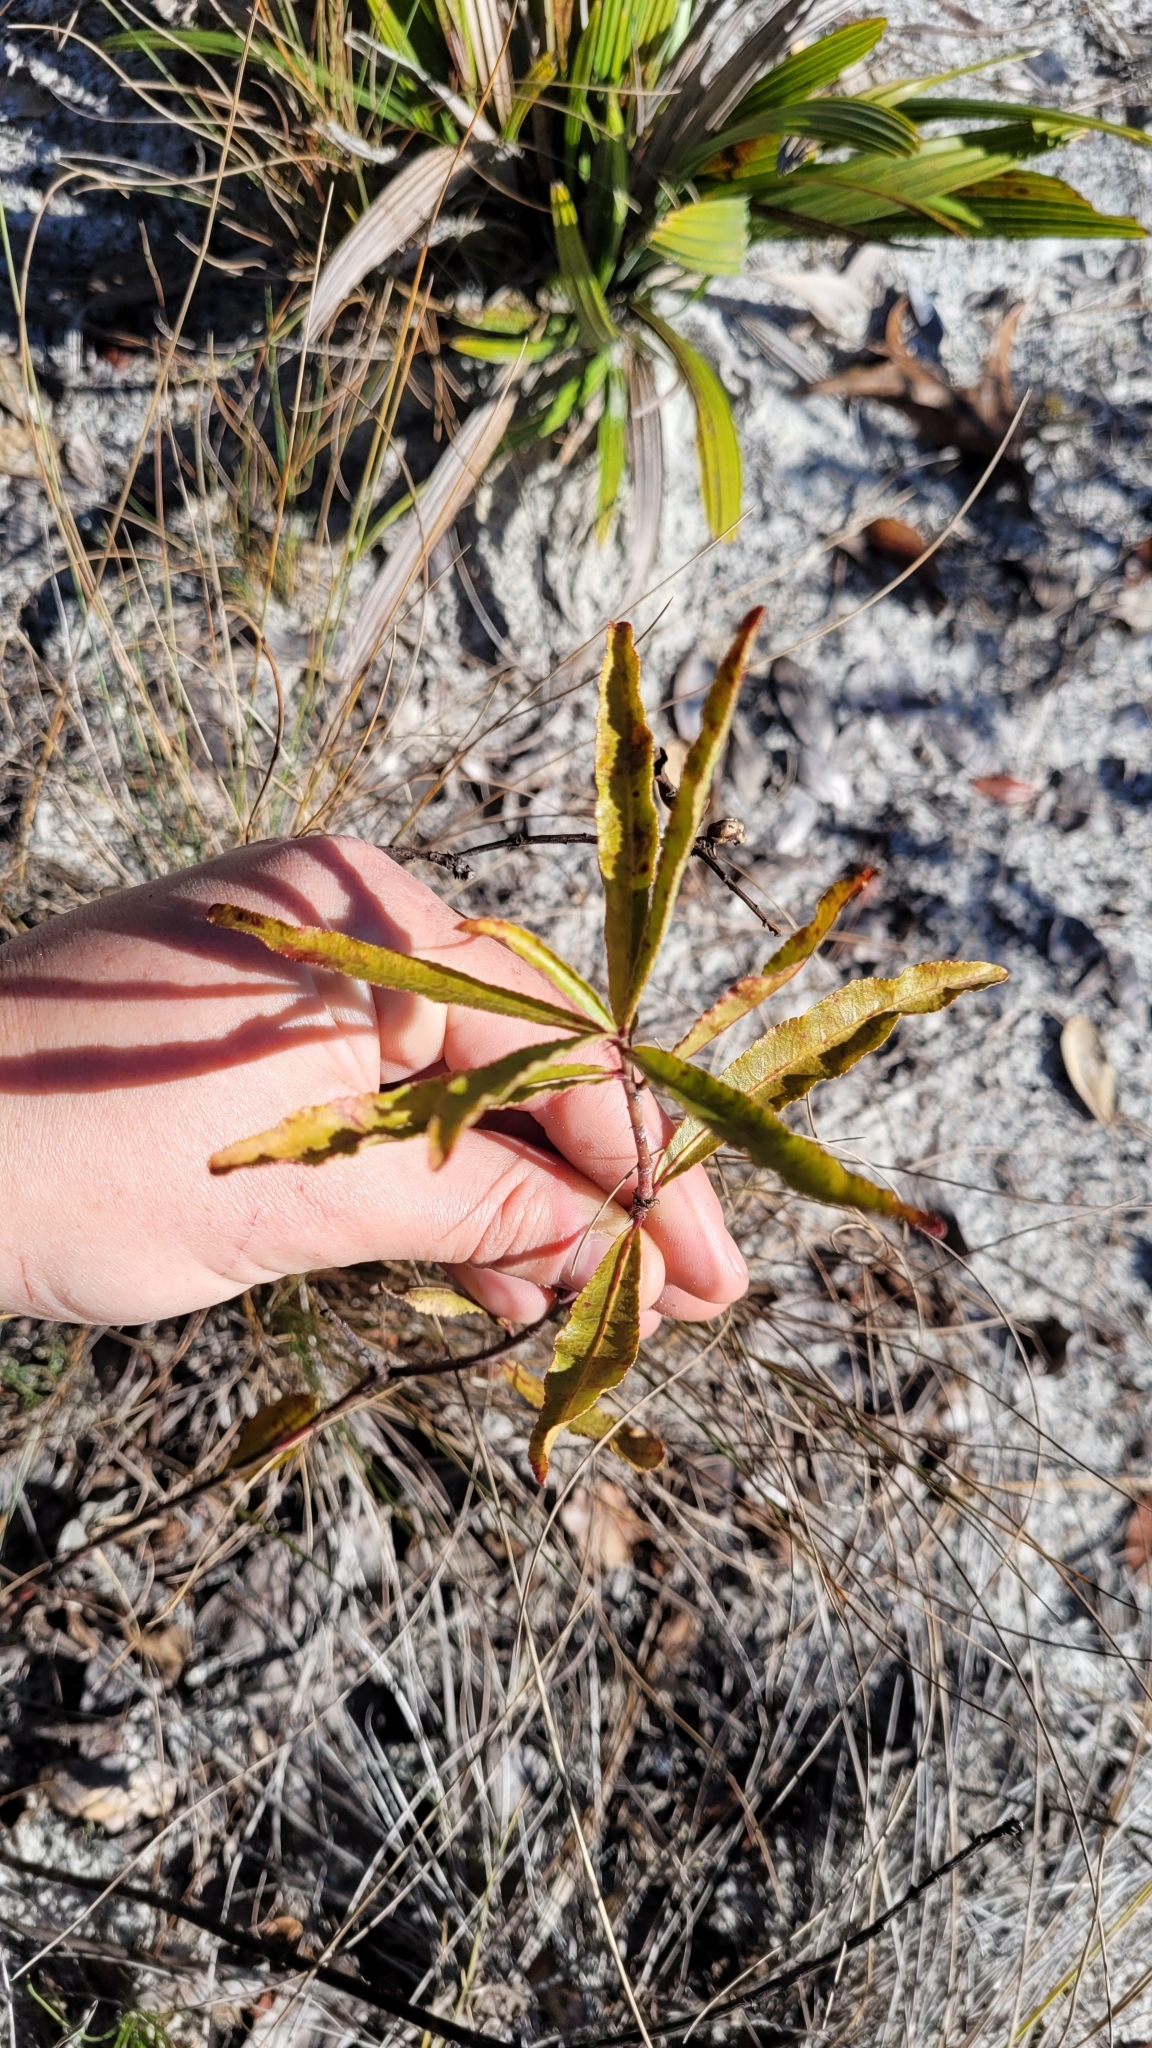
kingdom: Plantae
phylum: Tracheophyta
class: Magnoliopsida
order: Malpighiales
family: Euphorbiaceae
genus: Stillingia
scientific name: Stillingia sylvatica
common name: Queen's-delight
